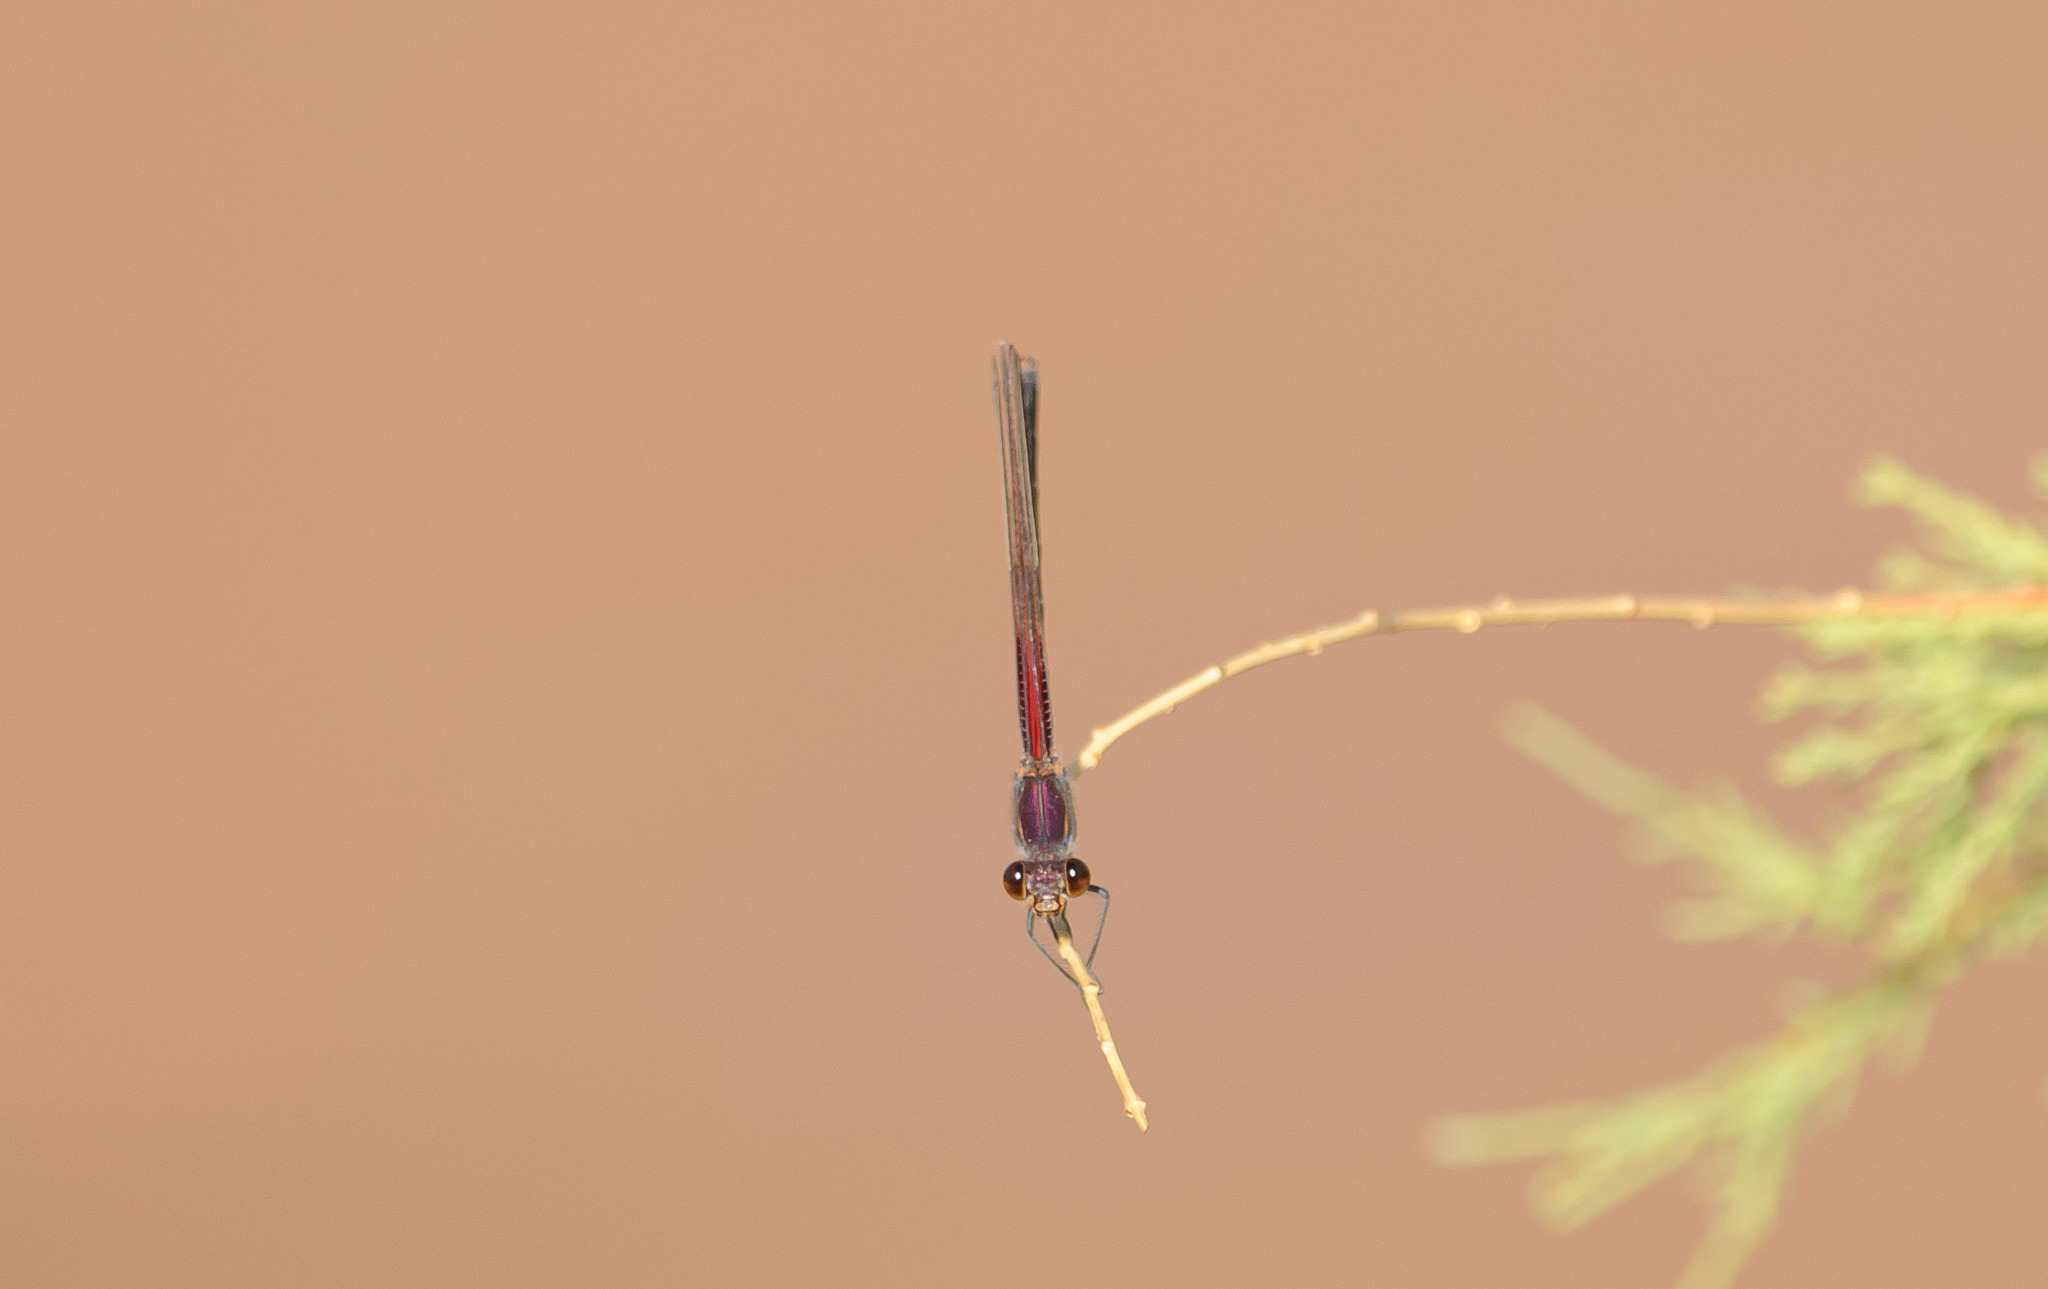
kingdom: Animalia
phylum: Arthropoda
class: Insecta
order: Odonata
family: Calopterygidae
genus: Hetaerina
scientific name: Hetaerina americana
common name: American rubyspot
